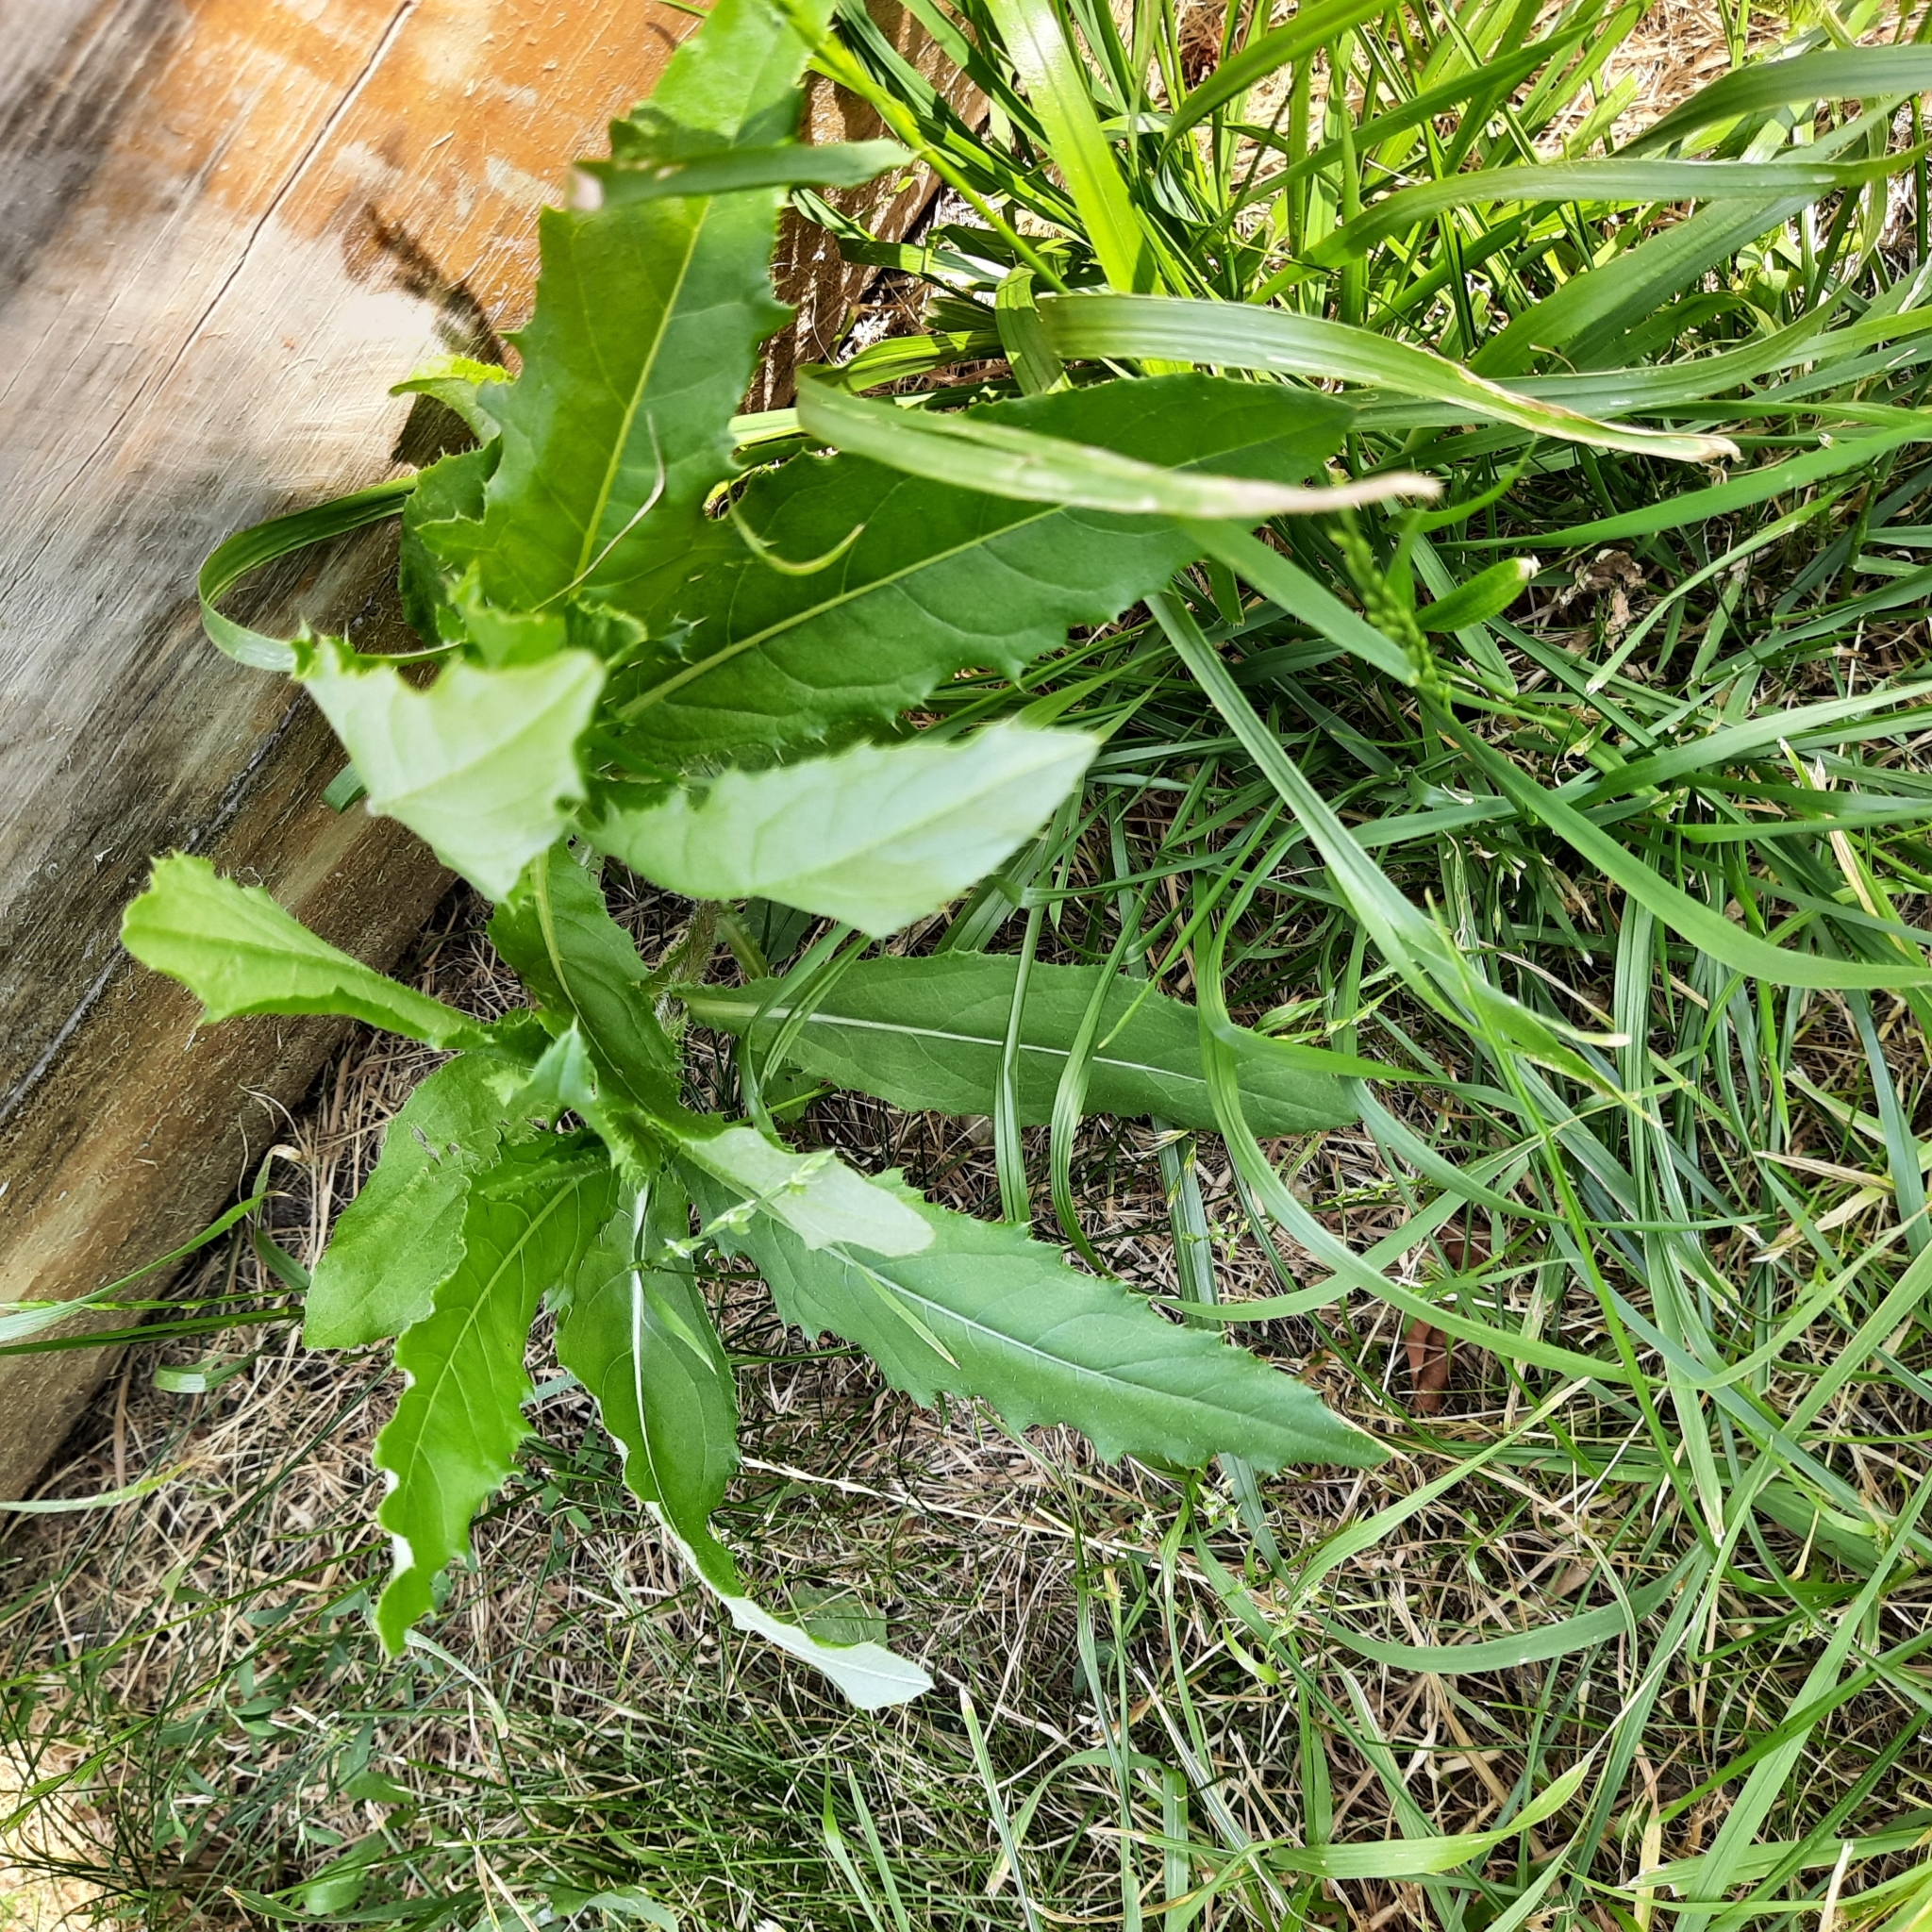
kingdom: Plantae
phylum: Tracheophyta
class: Magnoliopsida
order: Asterales
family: Asteraceae
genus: Cirsium
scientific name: Cirsium arvense
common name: Creeping thistle
